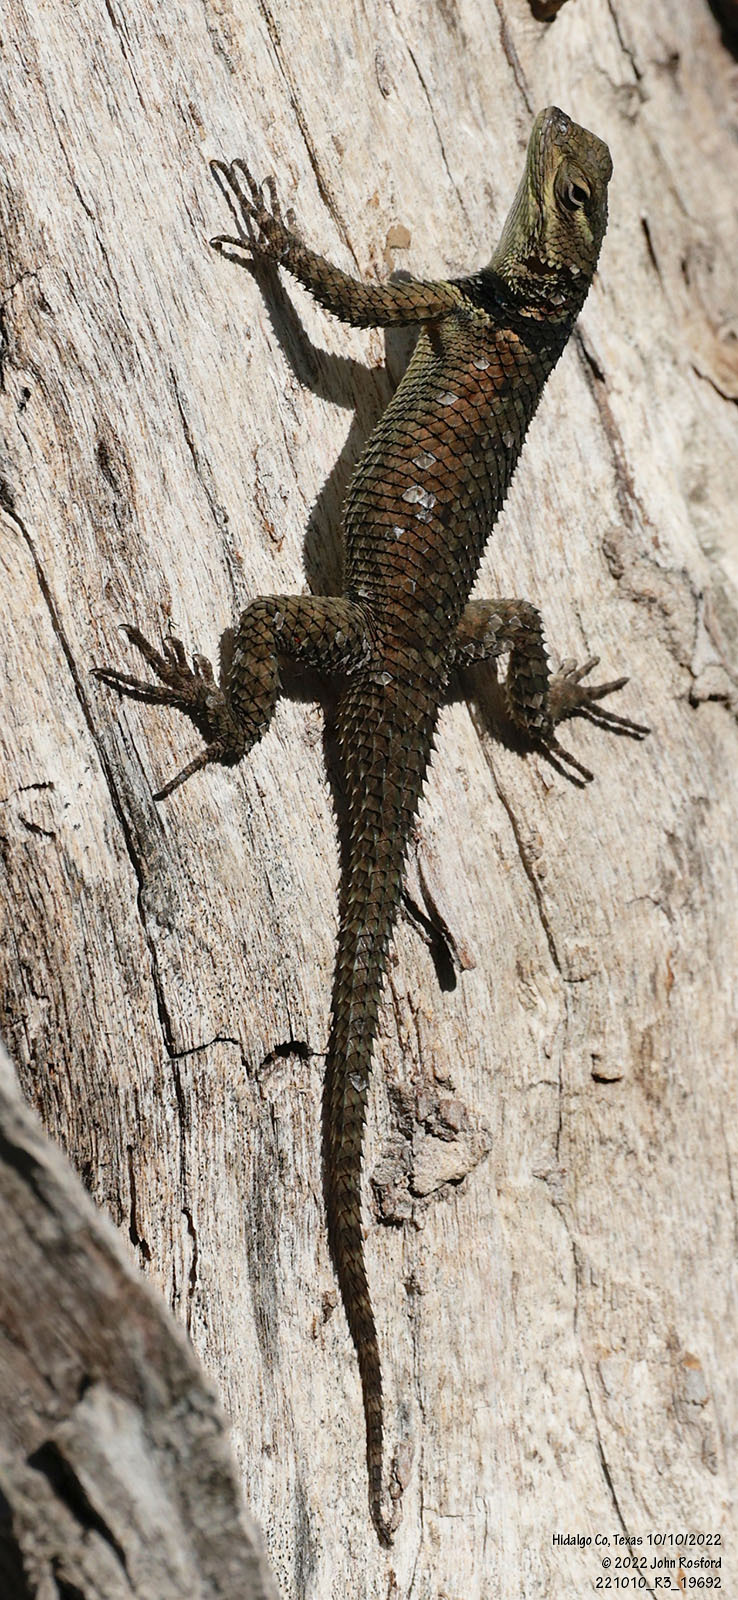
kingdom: Animalia
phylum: Chordata
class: Squamata
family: Phrynosomatidae
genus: Sceloporus
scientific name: Sceloporus cyanogenys
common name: Blue spiny lizard
